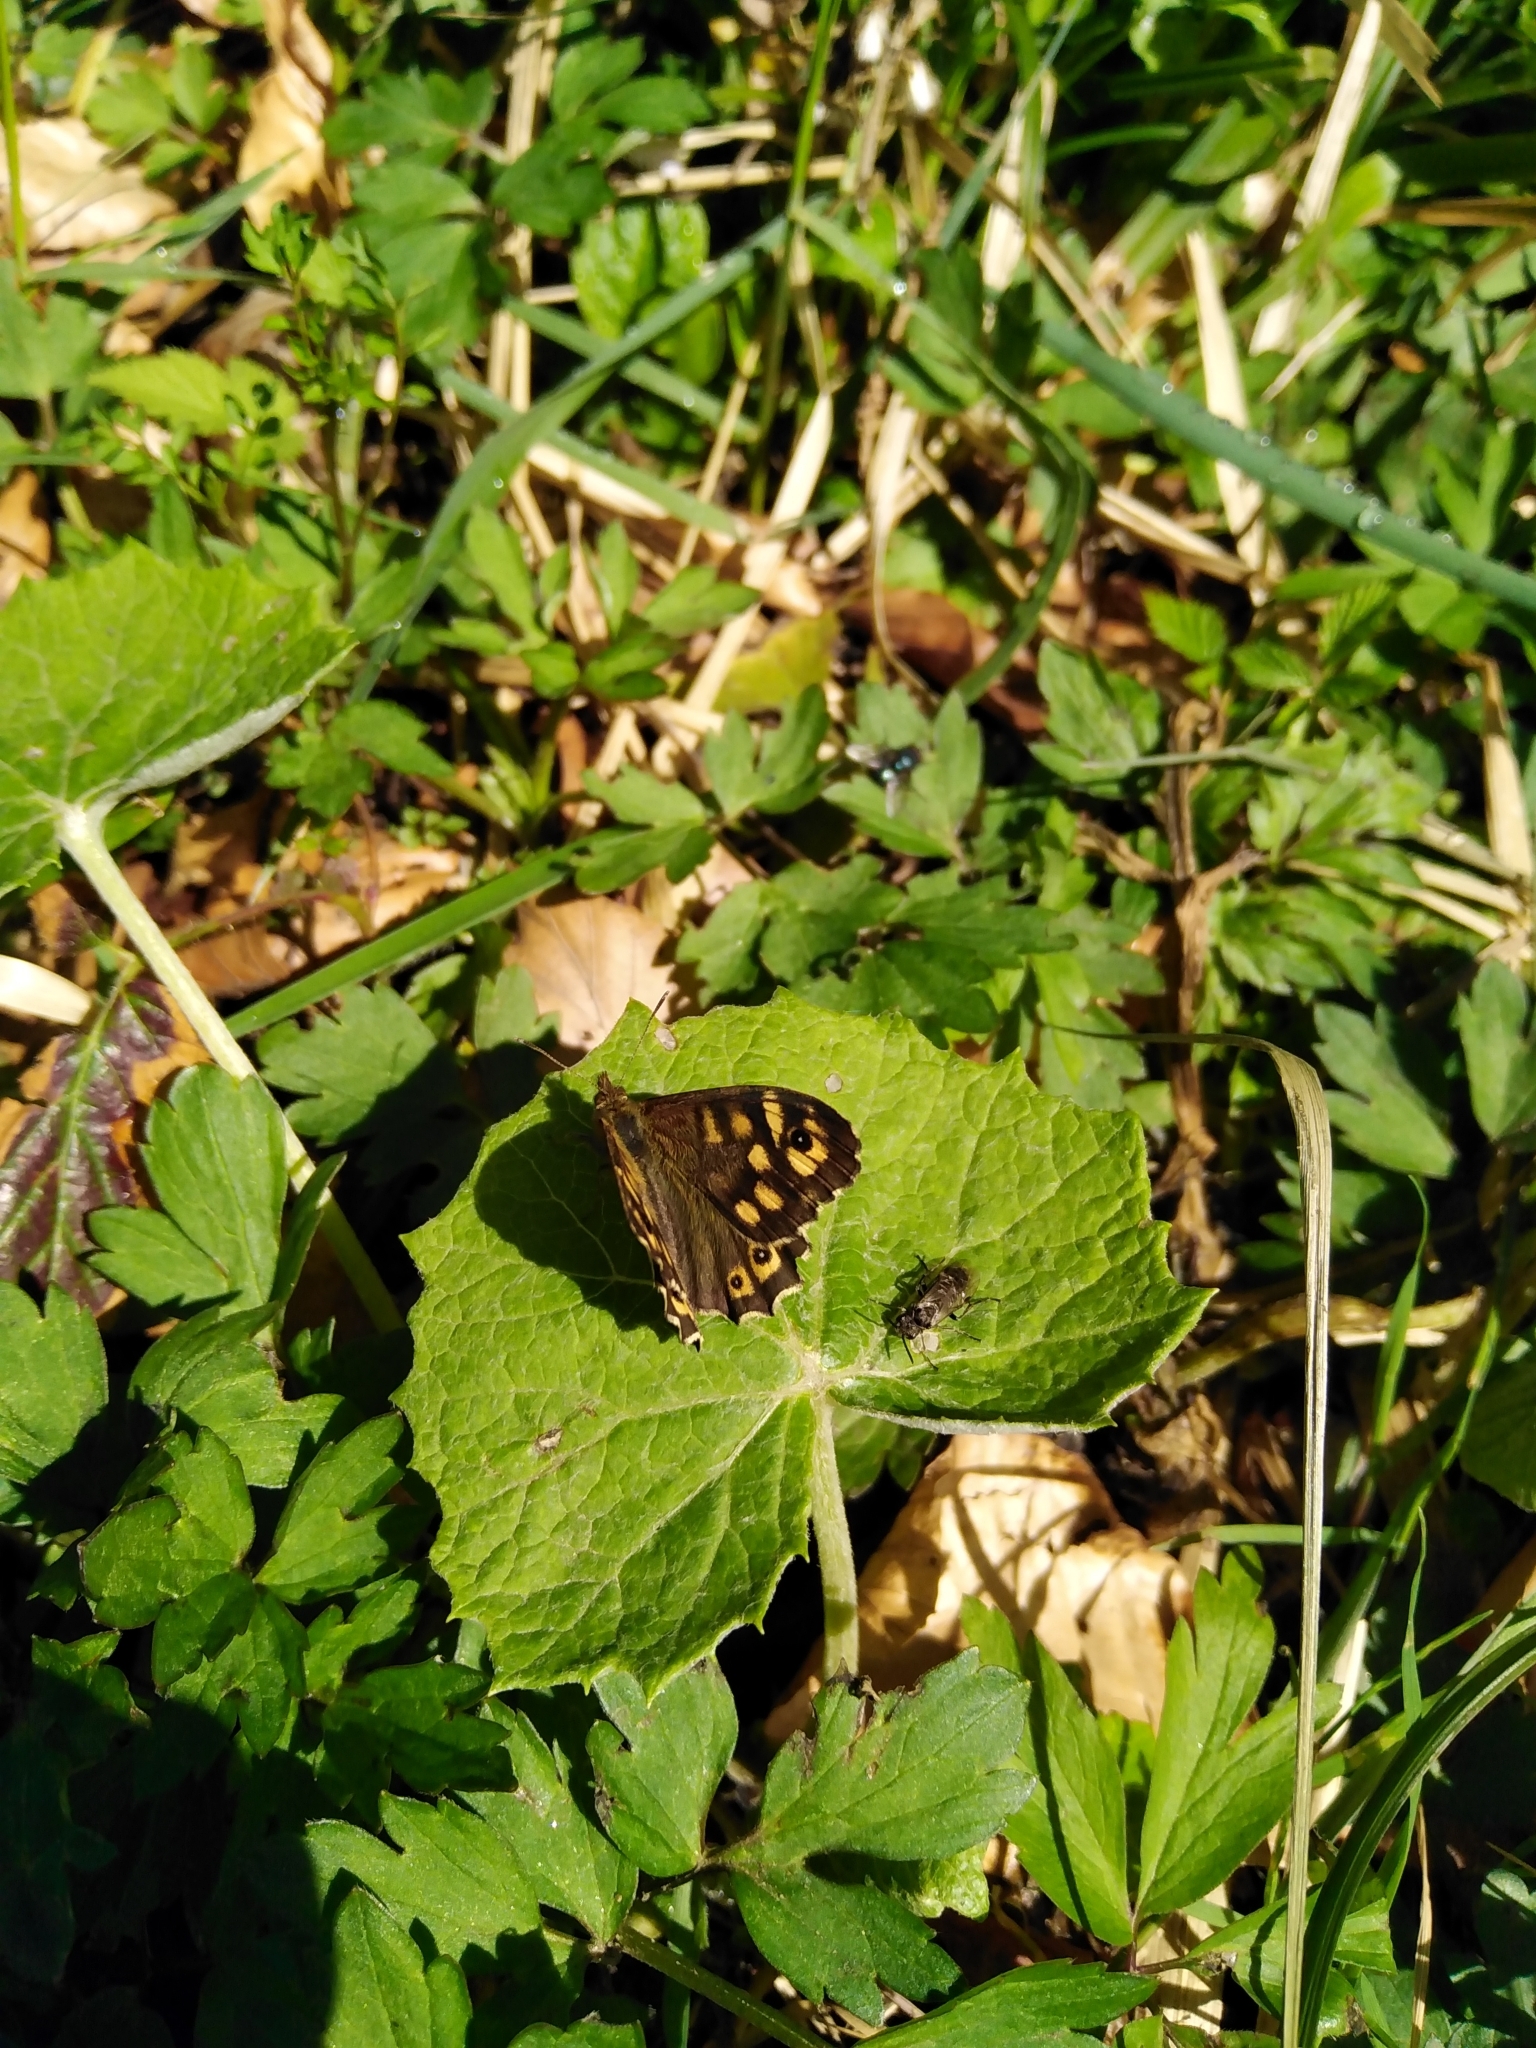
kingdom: Animalia
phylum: Arthropoda
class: Insecta
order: Lepidoptera
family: Nymphalidae
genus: Pararge
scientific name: Pararge aegeria
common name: Speckled wood
